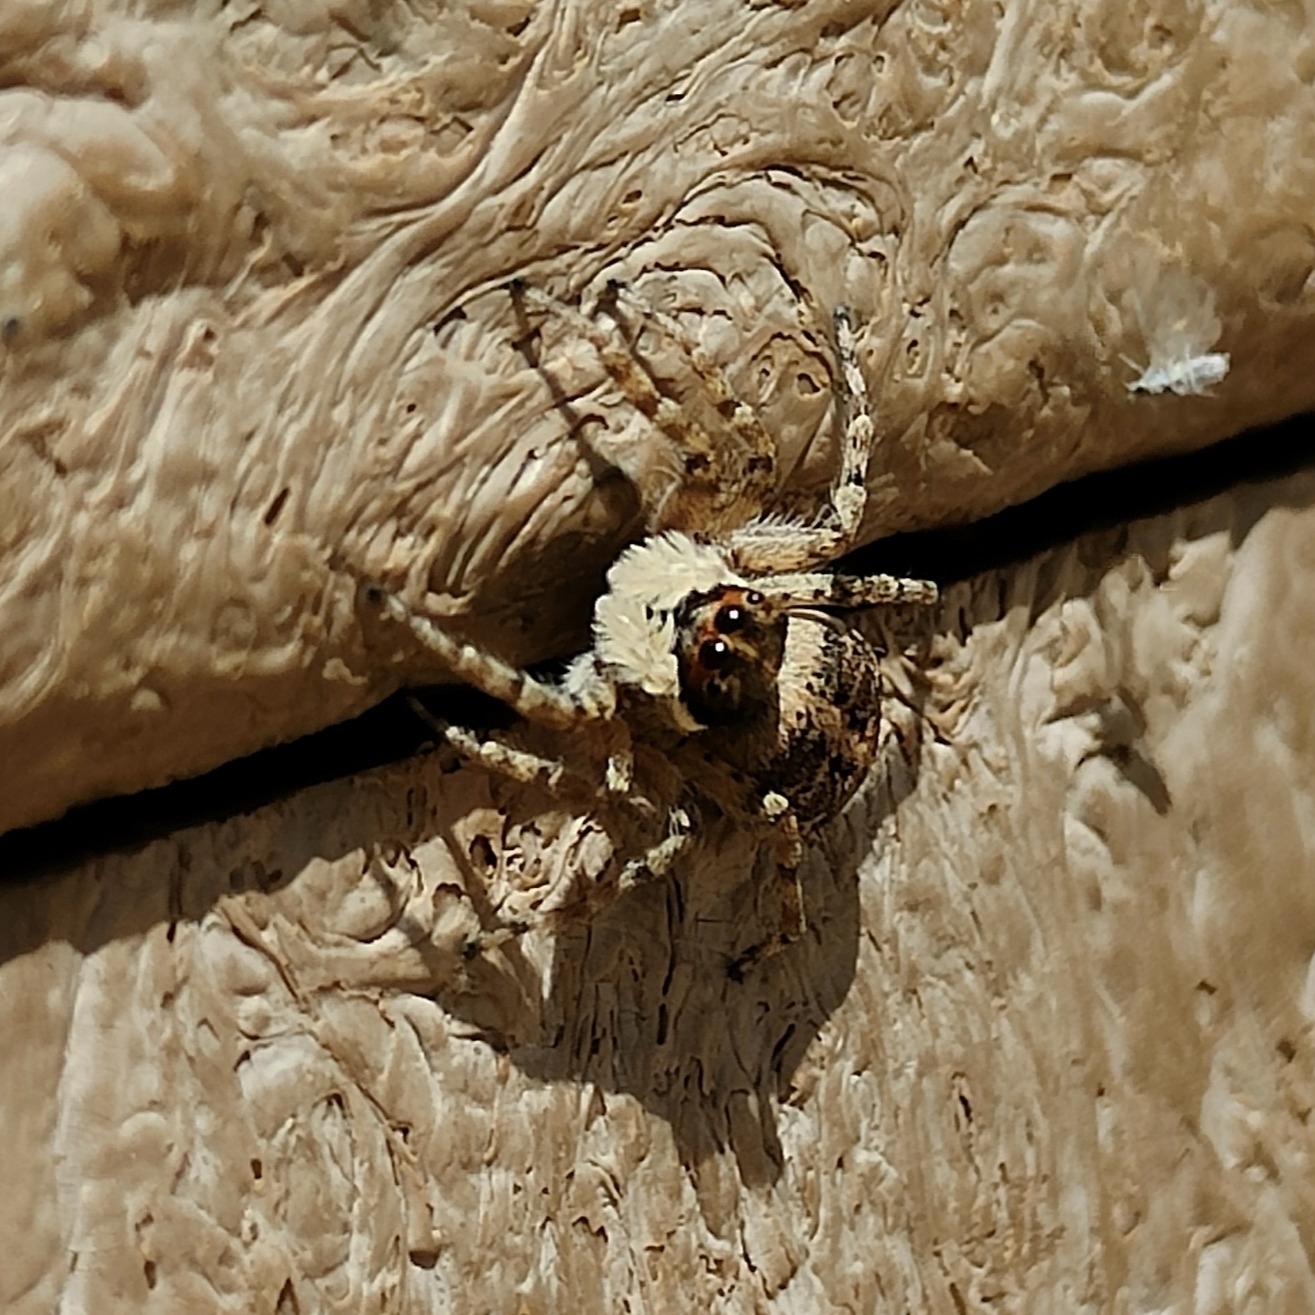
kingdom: Animalia
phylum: Arthropoda
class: Arachnida
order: Araneae
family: Salticidae
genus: Menemerus
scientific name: Menemerus semilimbatus
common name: Jumping spider
